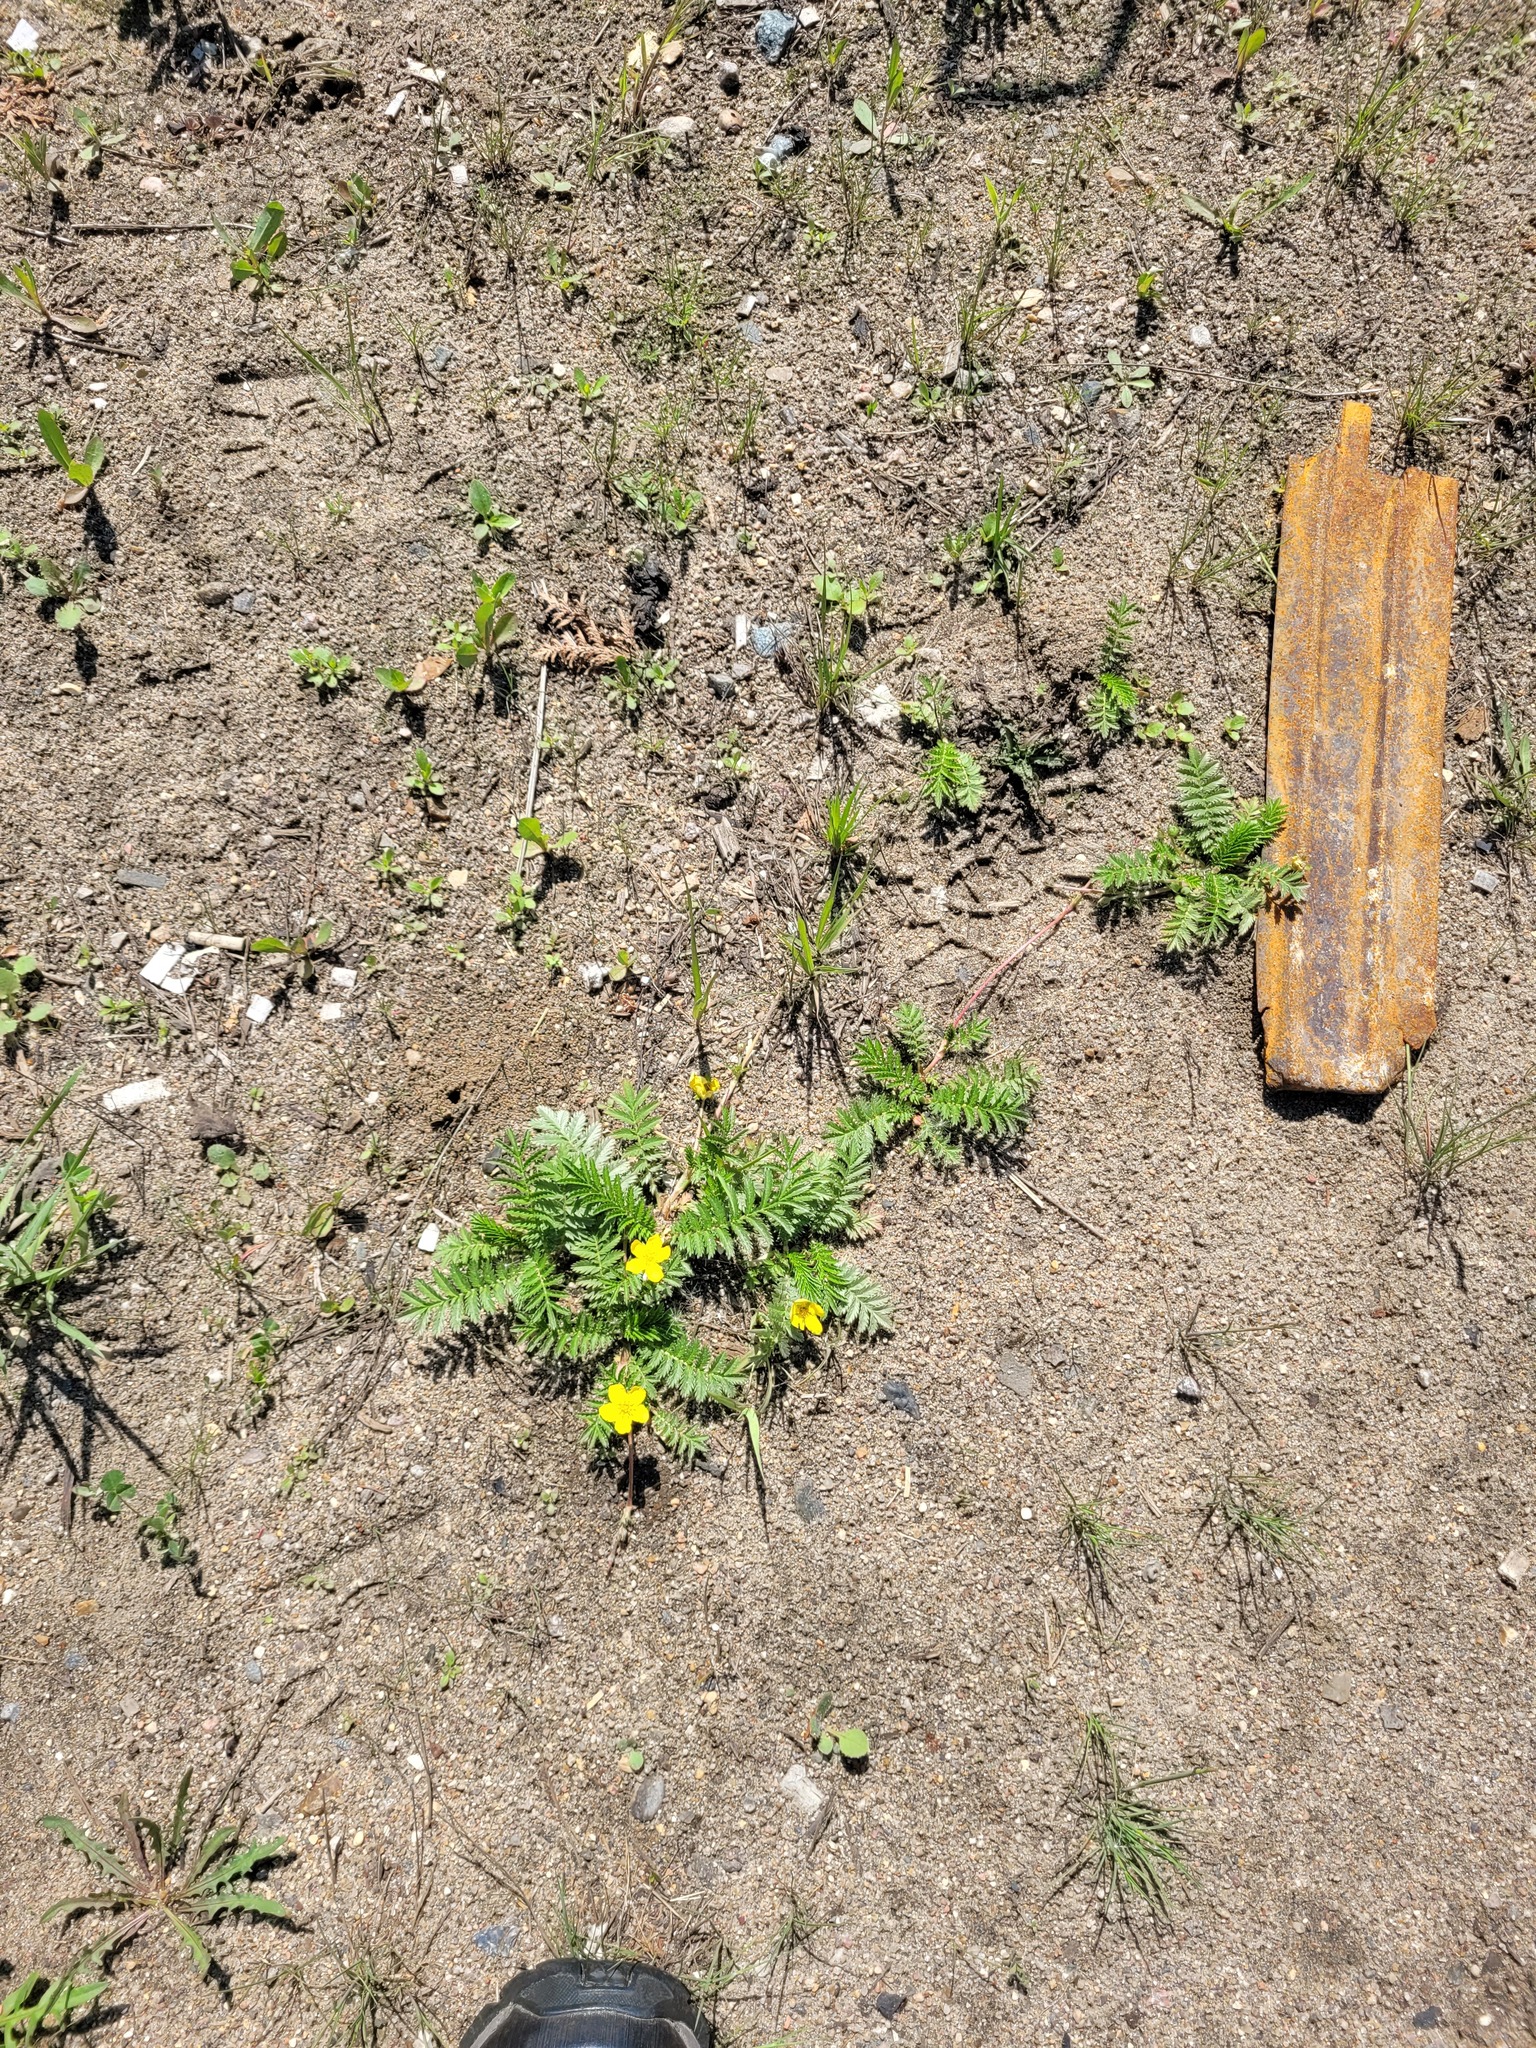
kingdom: Plantae
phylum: Tracheophyta
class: Magnoliopsida
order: Rosales
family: Rosaceae
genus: Argentina
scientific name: Argentina anserina
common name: Common silverweed
